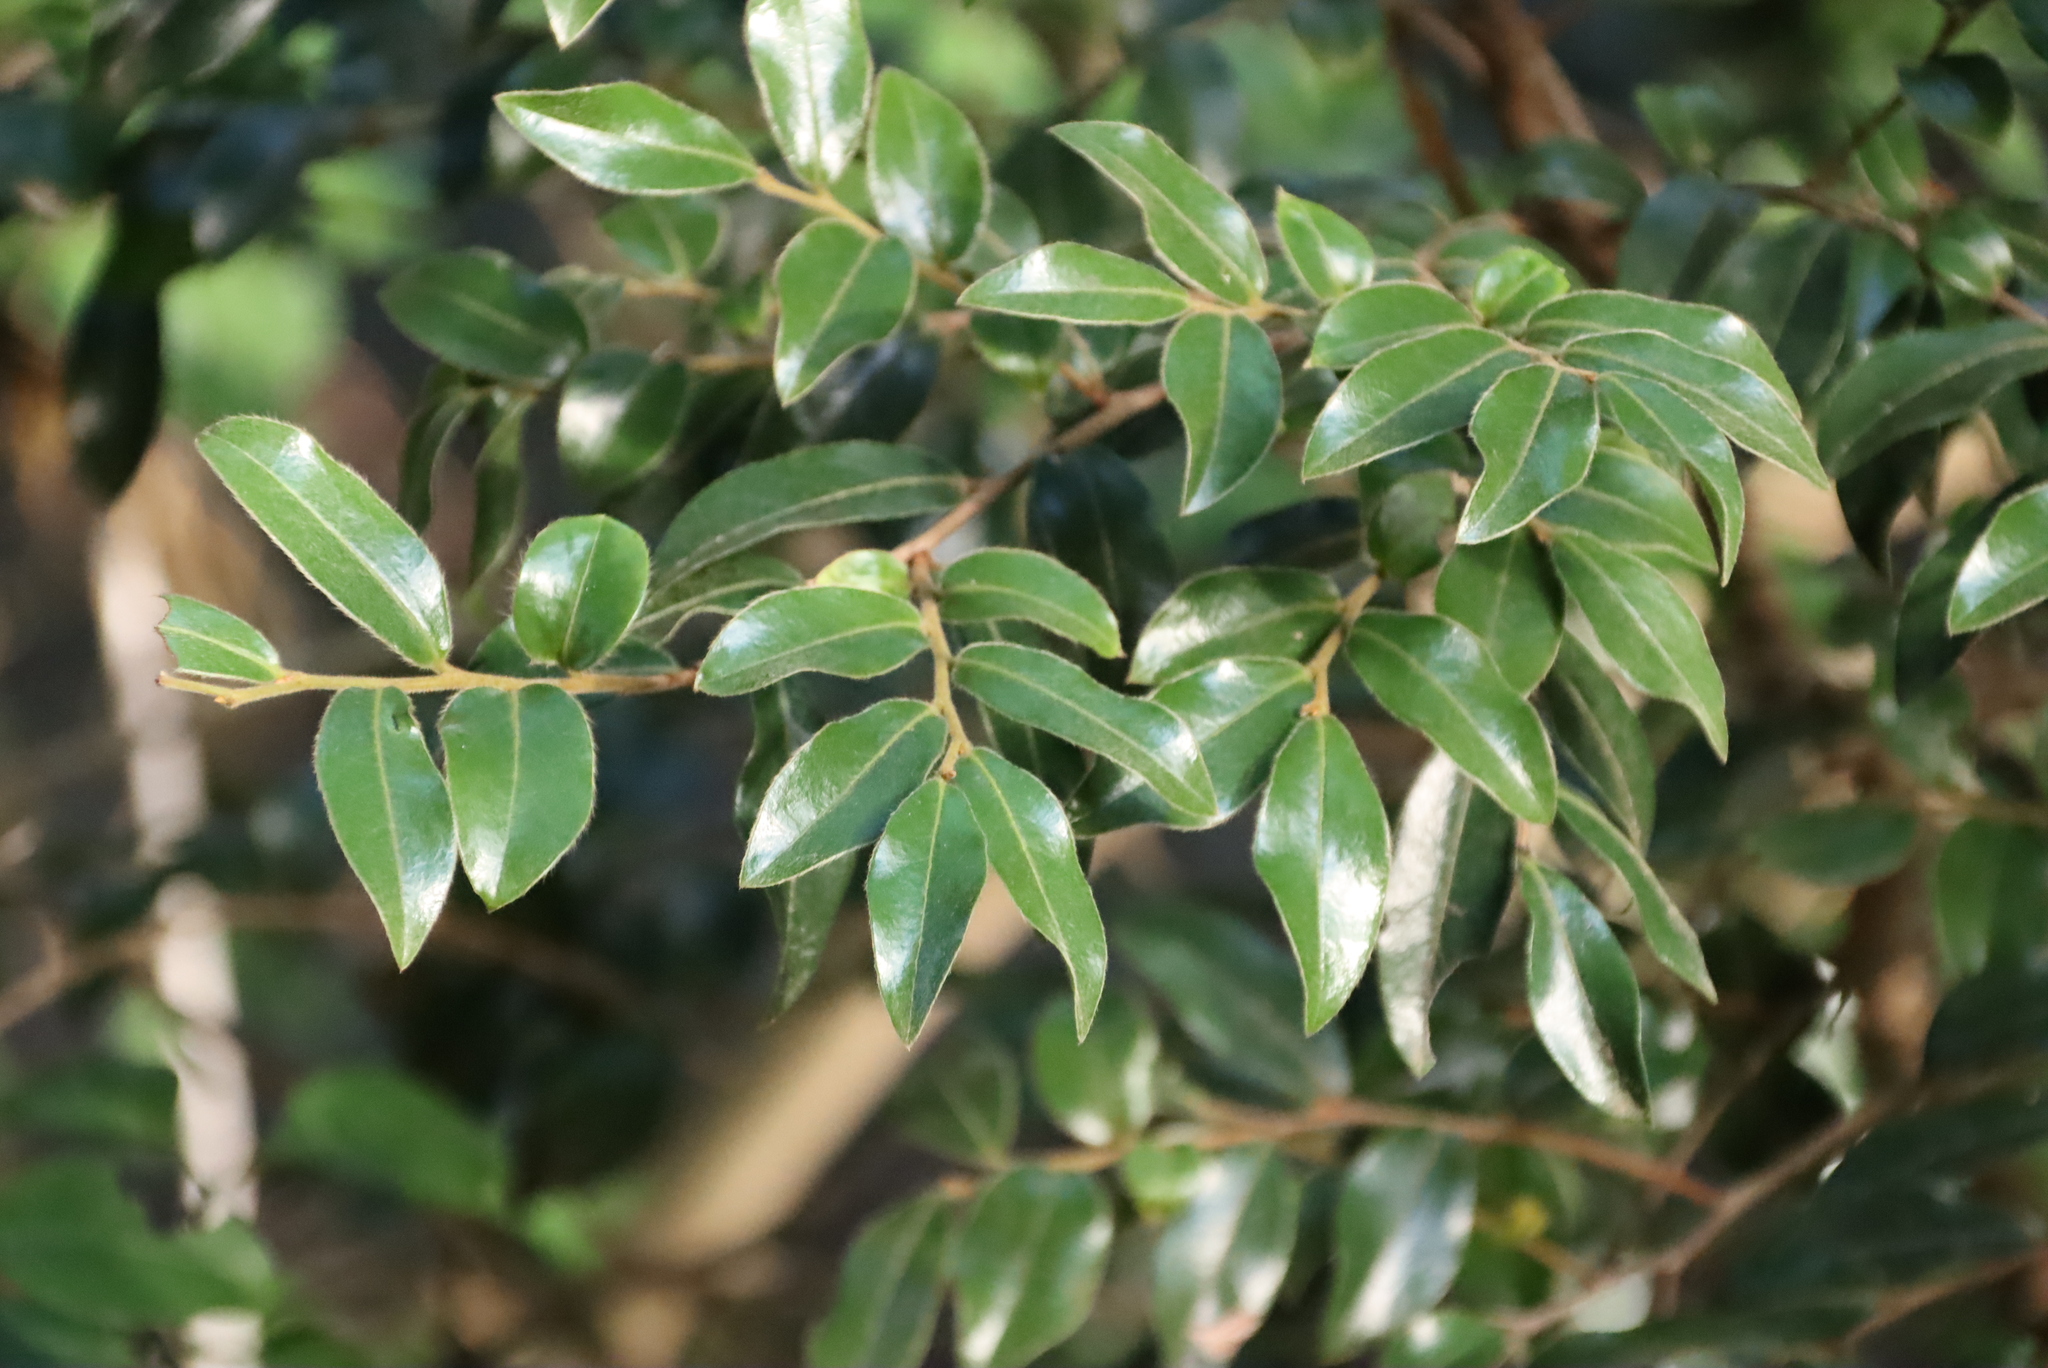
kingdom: Plantae
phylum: Tracheophyta
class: Magnoliopsida
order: Ericales
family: Ebenaceae
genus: Diospyros
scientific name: Diospyros whyteana
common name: Bladder-nut
